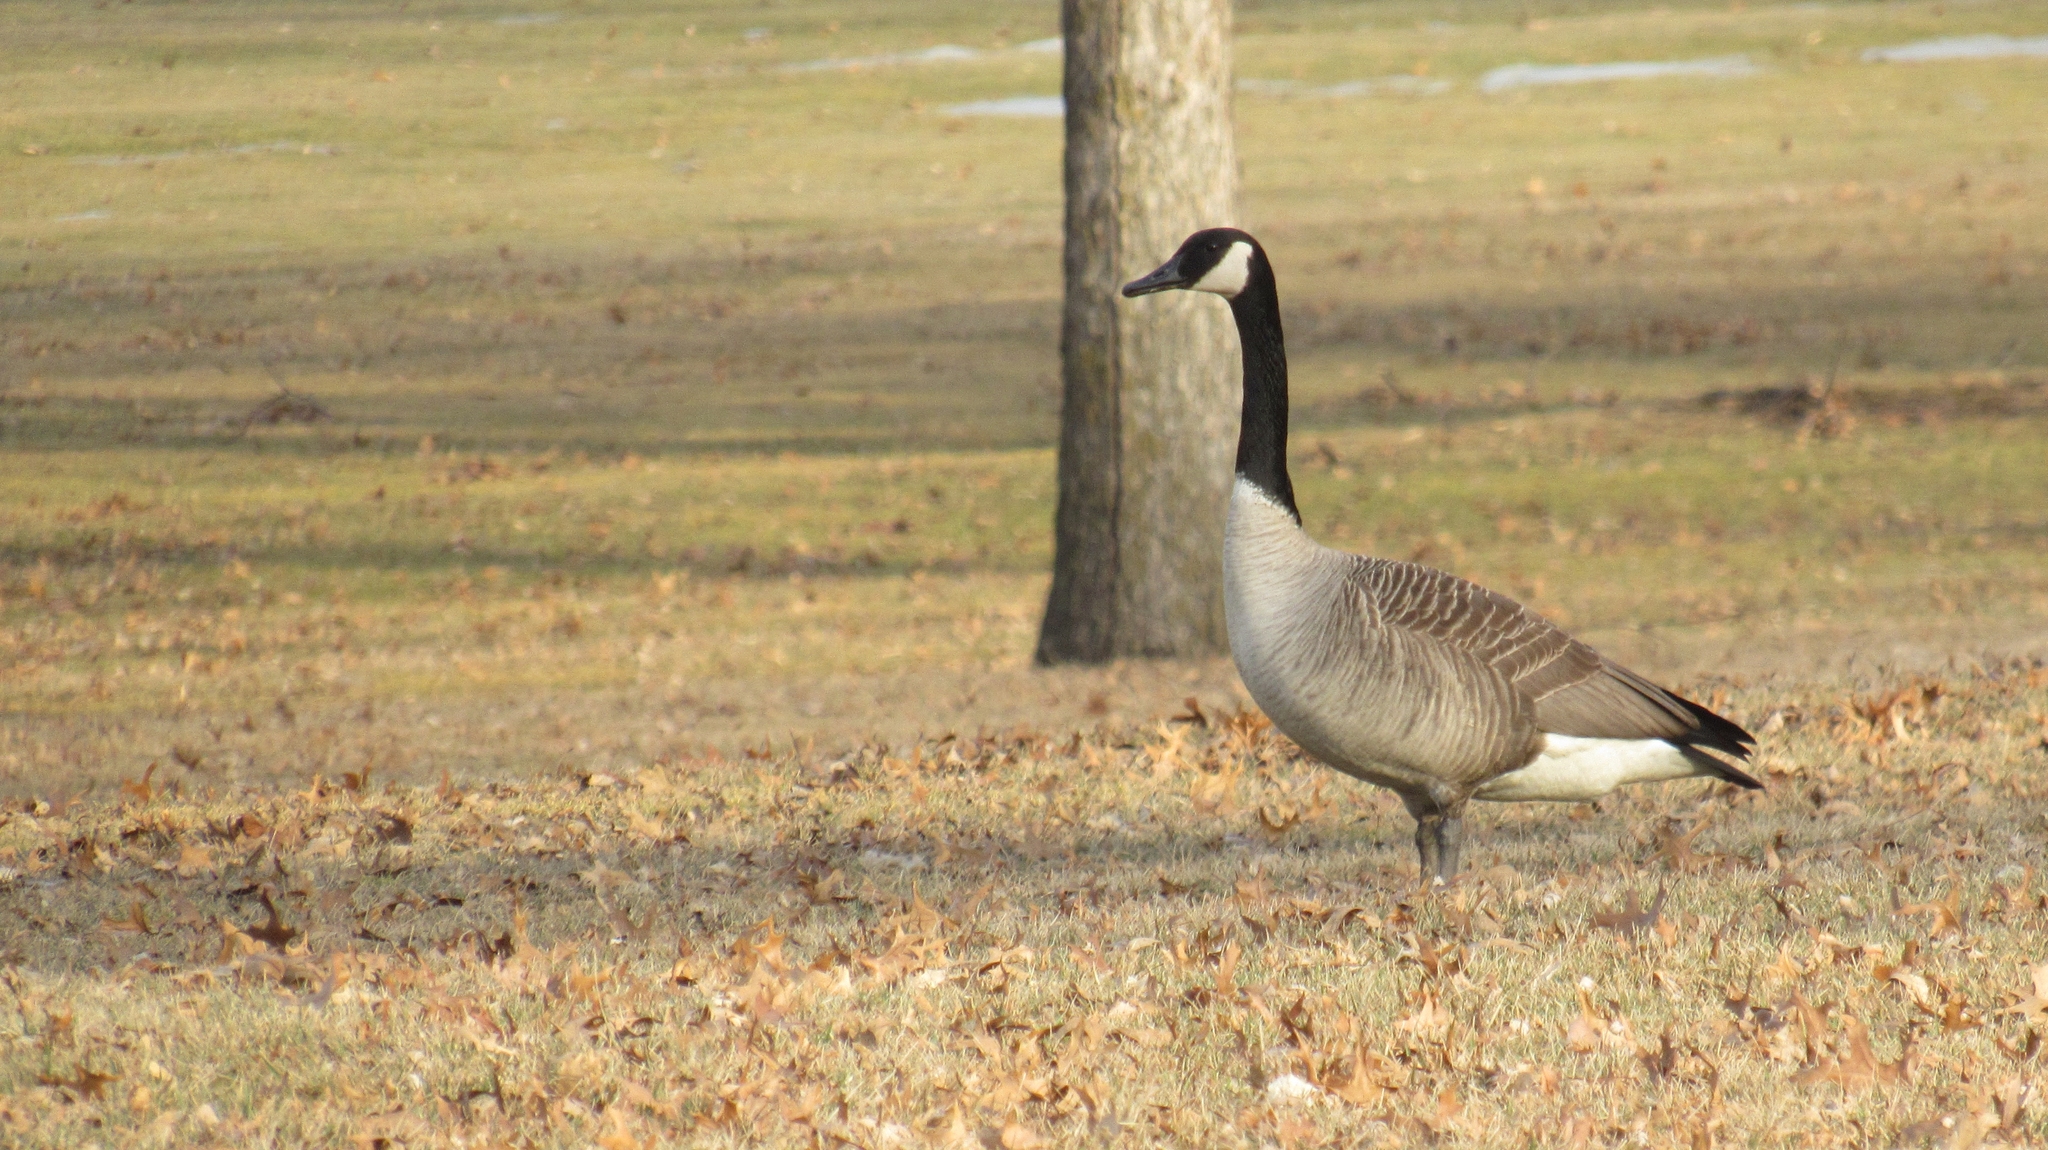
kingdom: Animalia
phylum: Chordata
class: Aves
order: Anseriformes
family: Anatidae
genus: Branta
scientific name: Branta canadensis
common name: Canada goose
